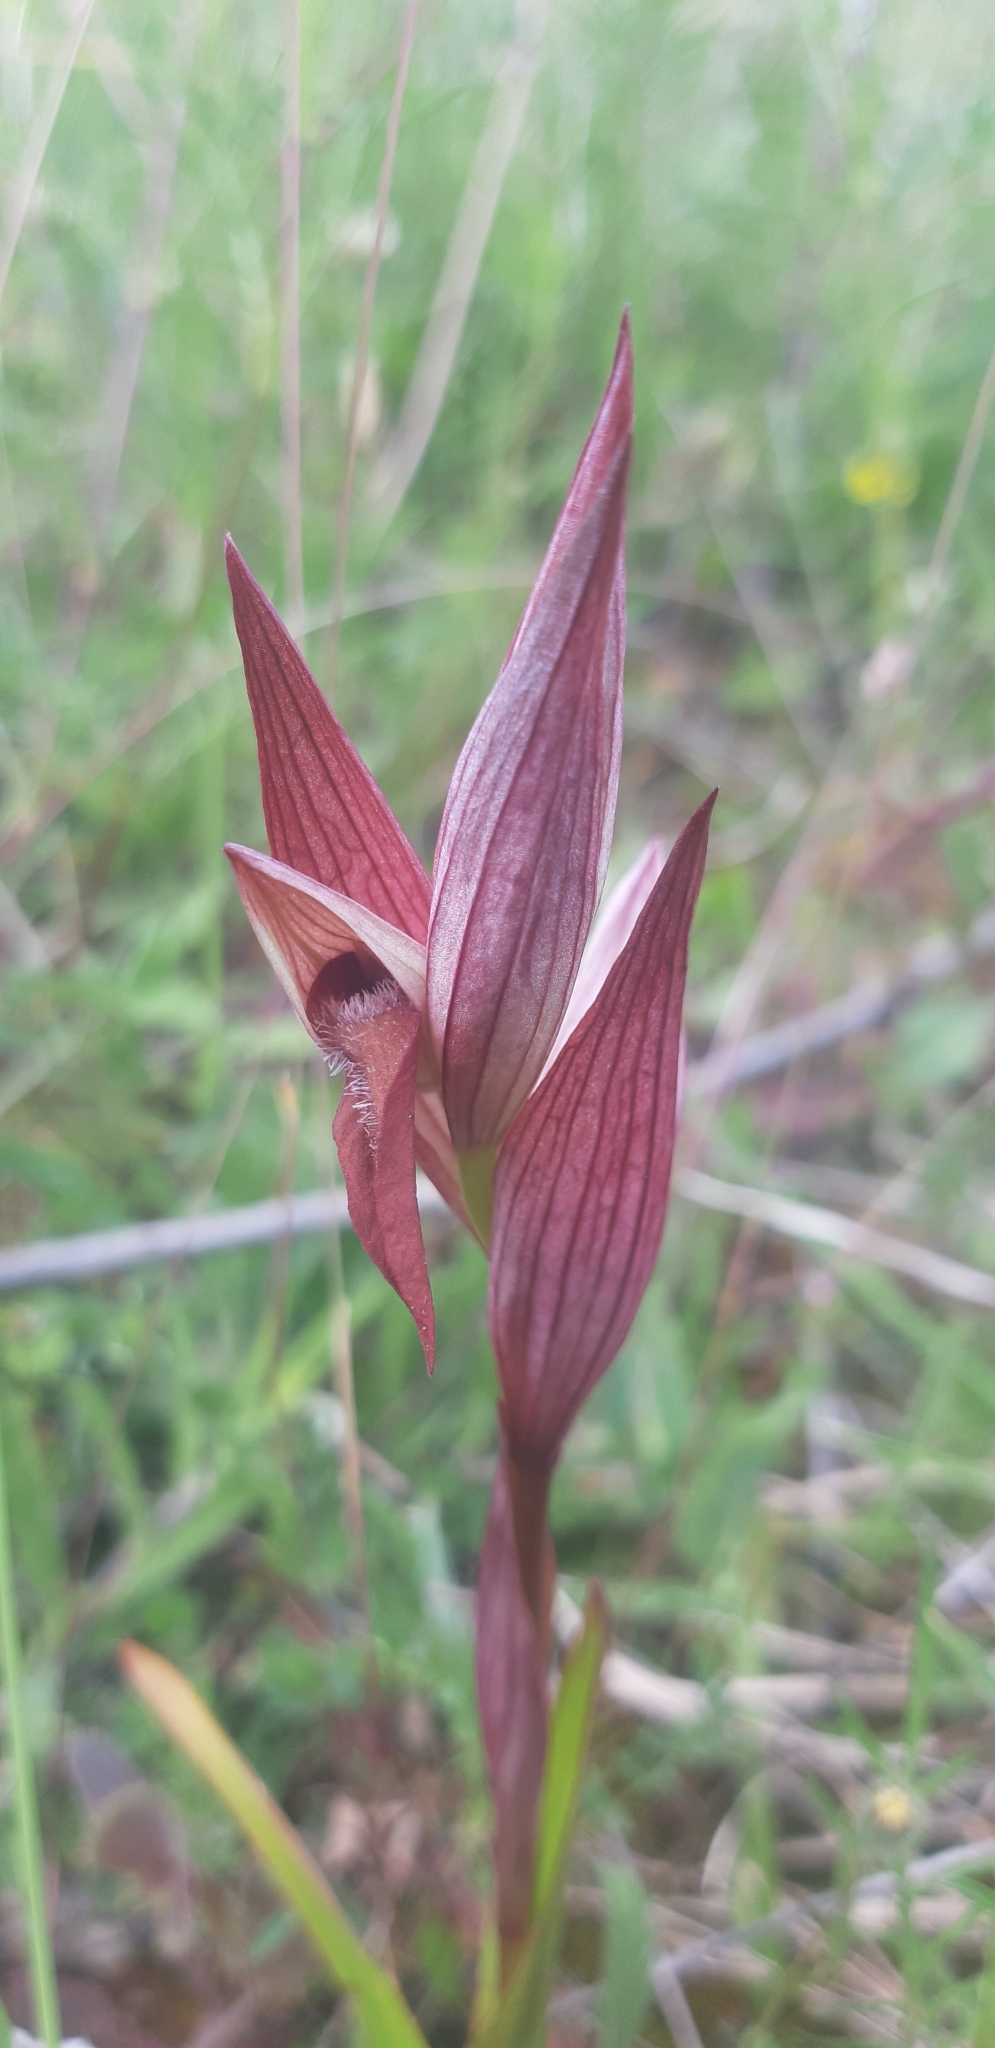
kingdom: Plantae
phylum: Tracheophyta
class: Liliopsida
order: Asparagales
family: Orchidaceae
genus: Serapias
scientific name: Serapias vomeracea
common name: Long-lipped tongue-orchid
